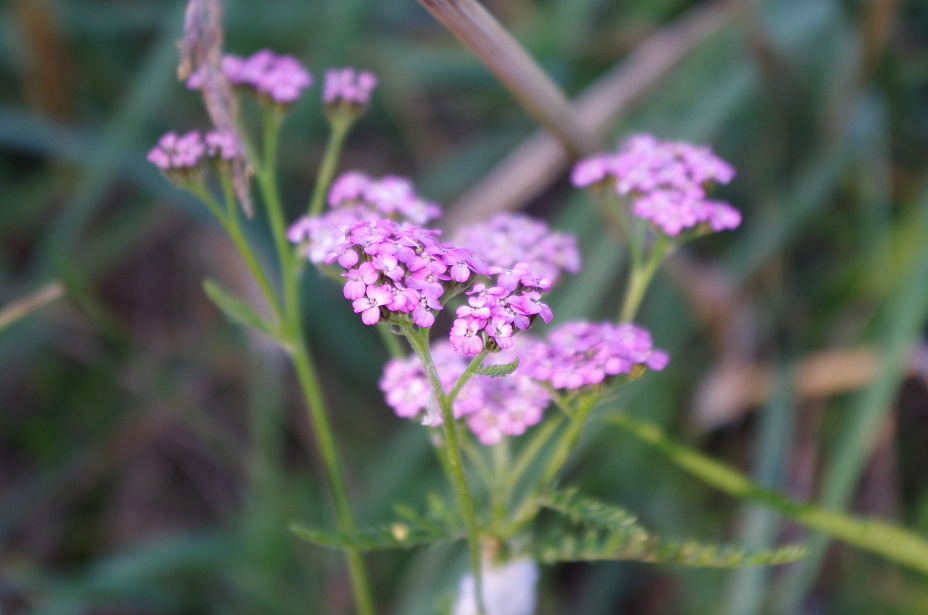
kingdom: Plantae
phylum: Tracheophyta
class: Magnoliopsida
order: Asterales
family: Asteraceae
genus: Achillea
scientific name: Achillea millefolium
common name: Yarrow
